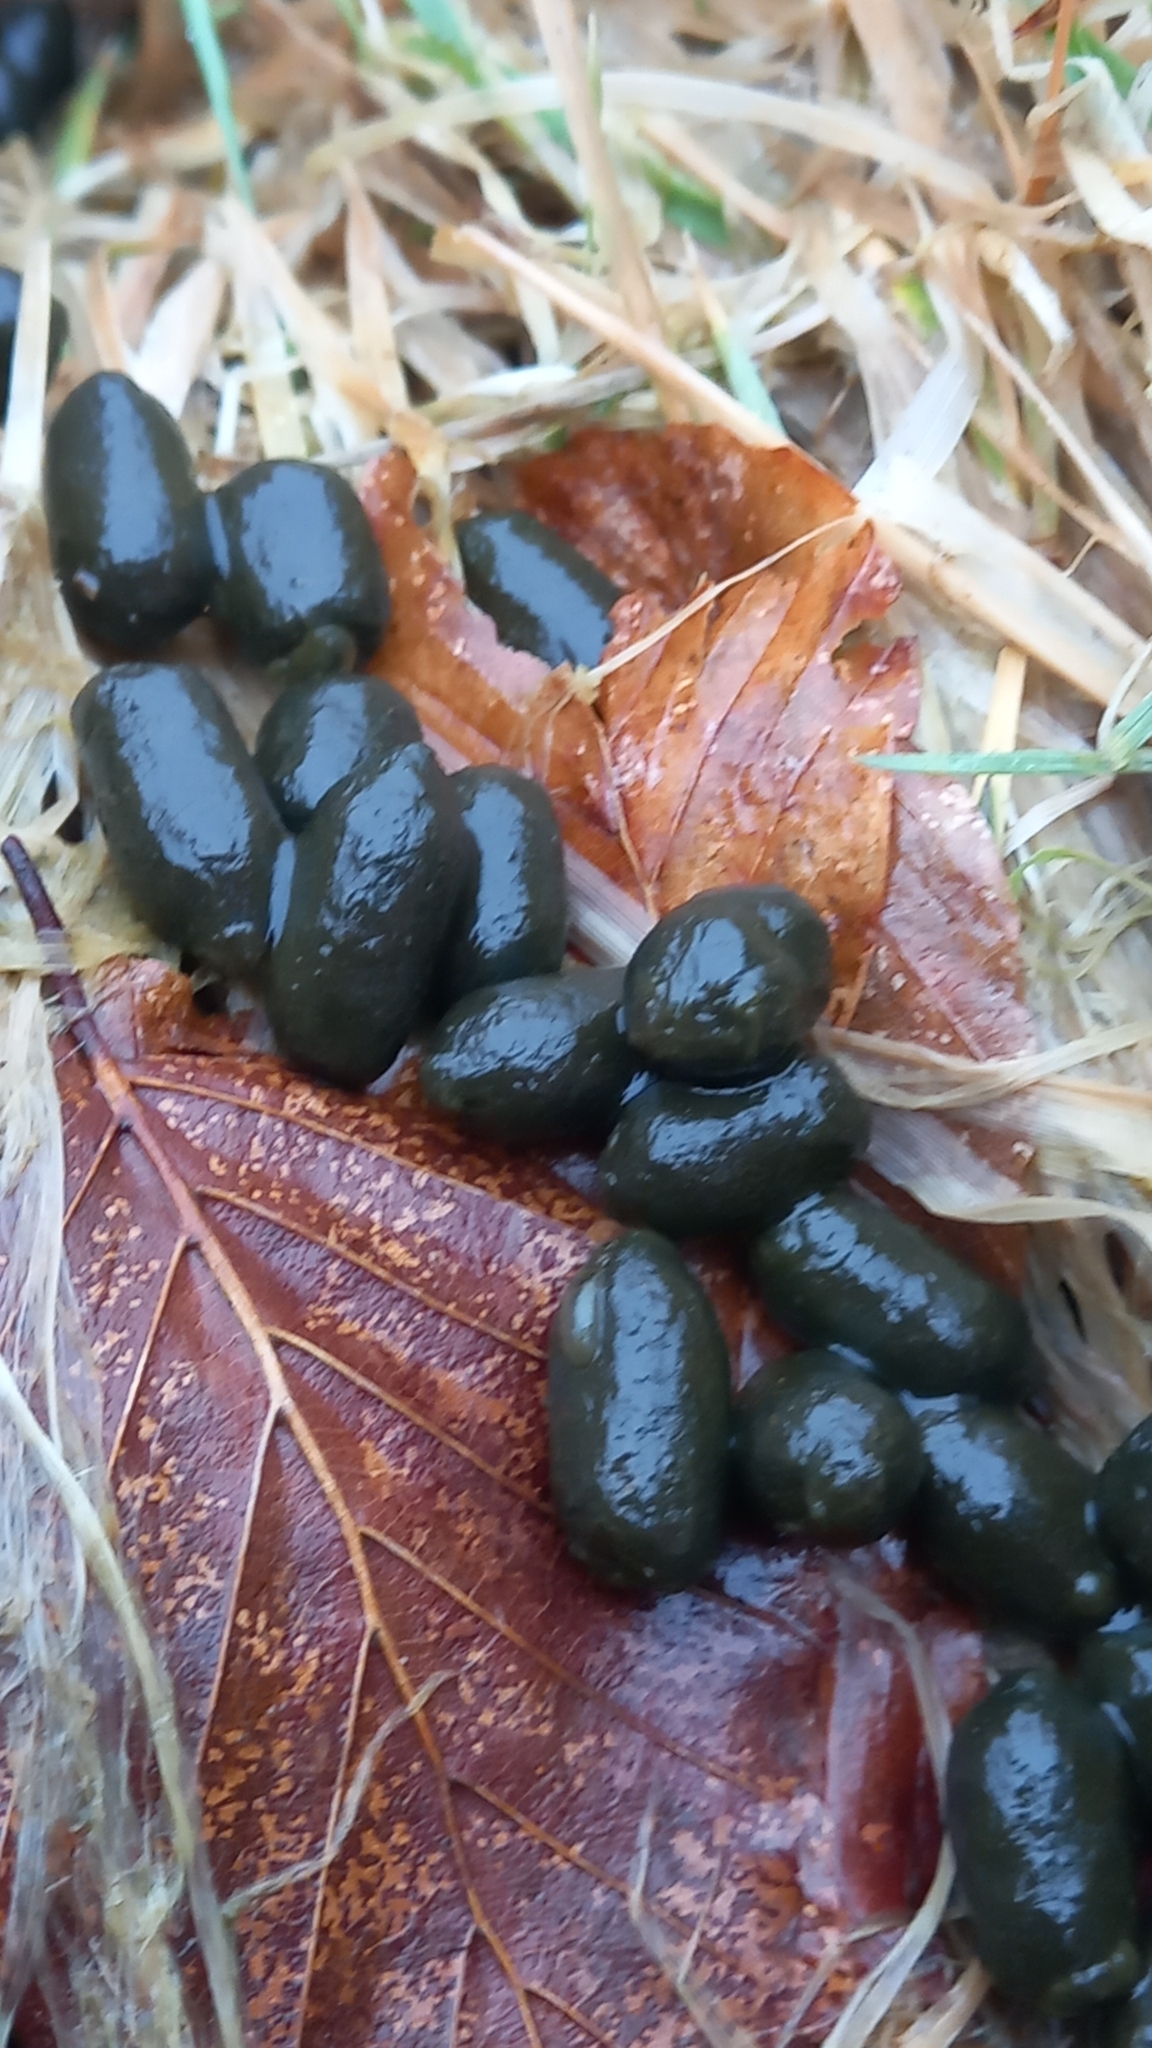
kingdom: Animalia
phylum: Chordata
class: Mammalia
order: Artiodactyla
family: Cervidae
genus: Capreolus
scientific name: Capreolus capreolus
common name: Western roe deer
